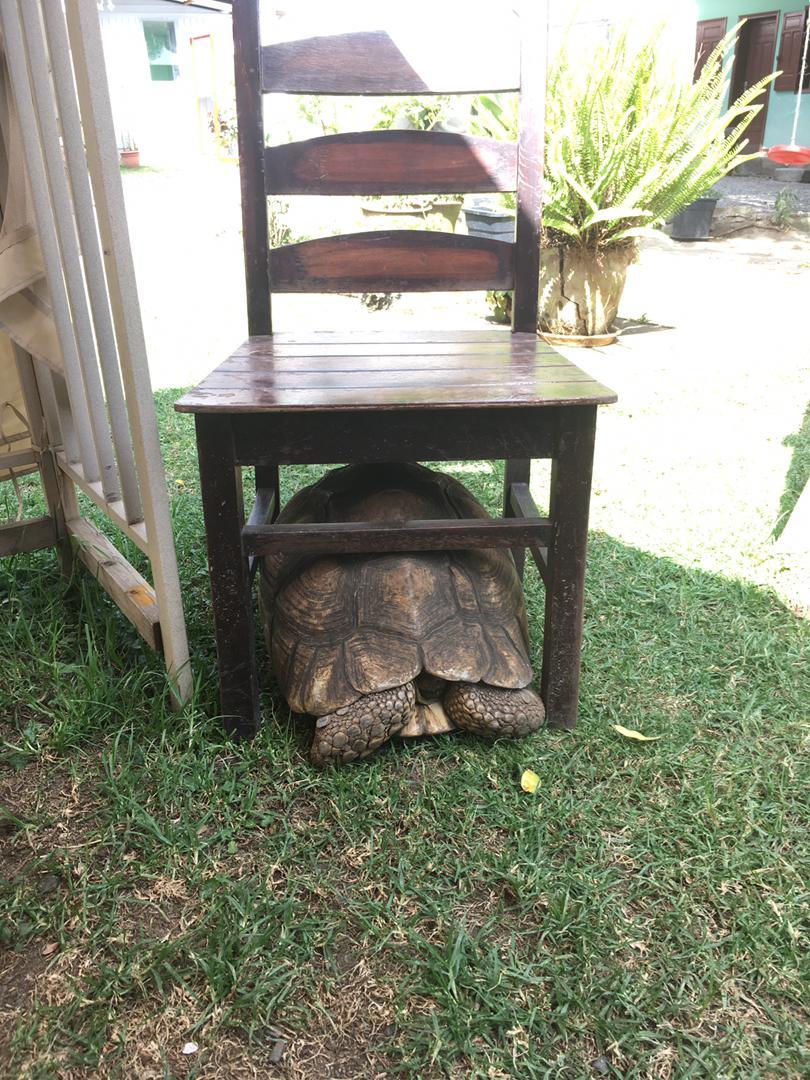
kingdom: Animalia
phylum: Chordata
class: Testudines
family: Testudinidae
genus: Stigmochelys
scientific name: Stigmochelys pardalis
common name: Leopard tortoise
